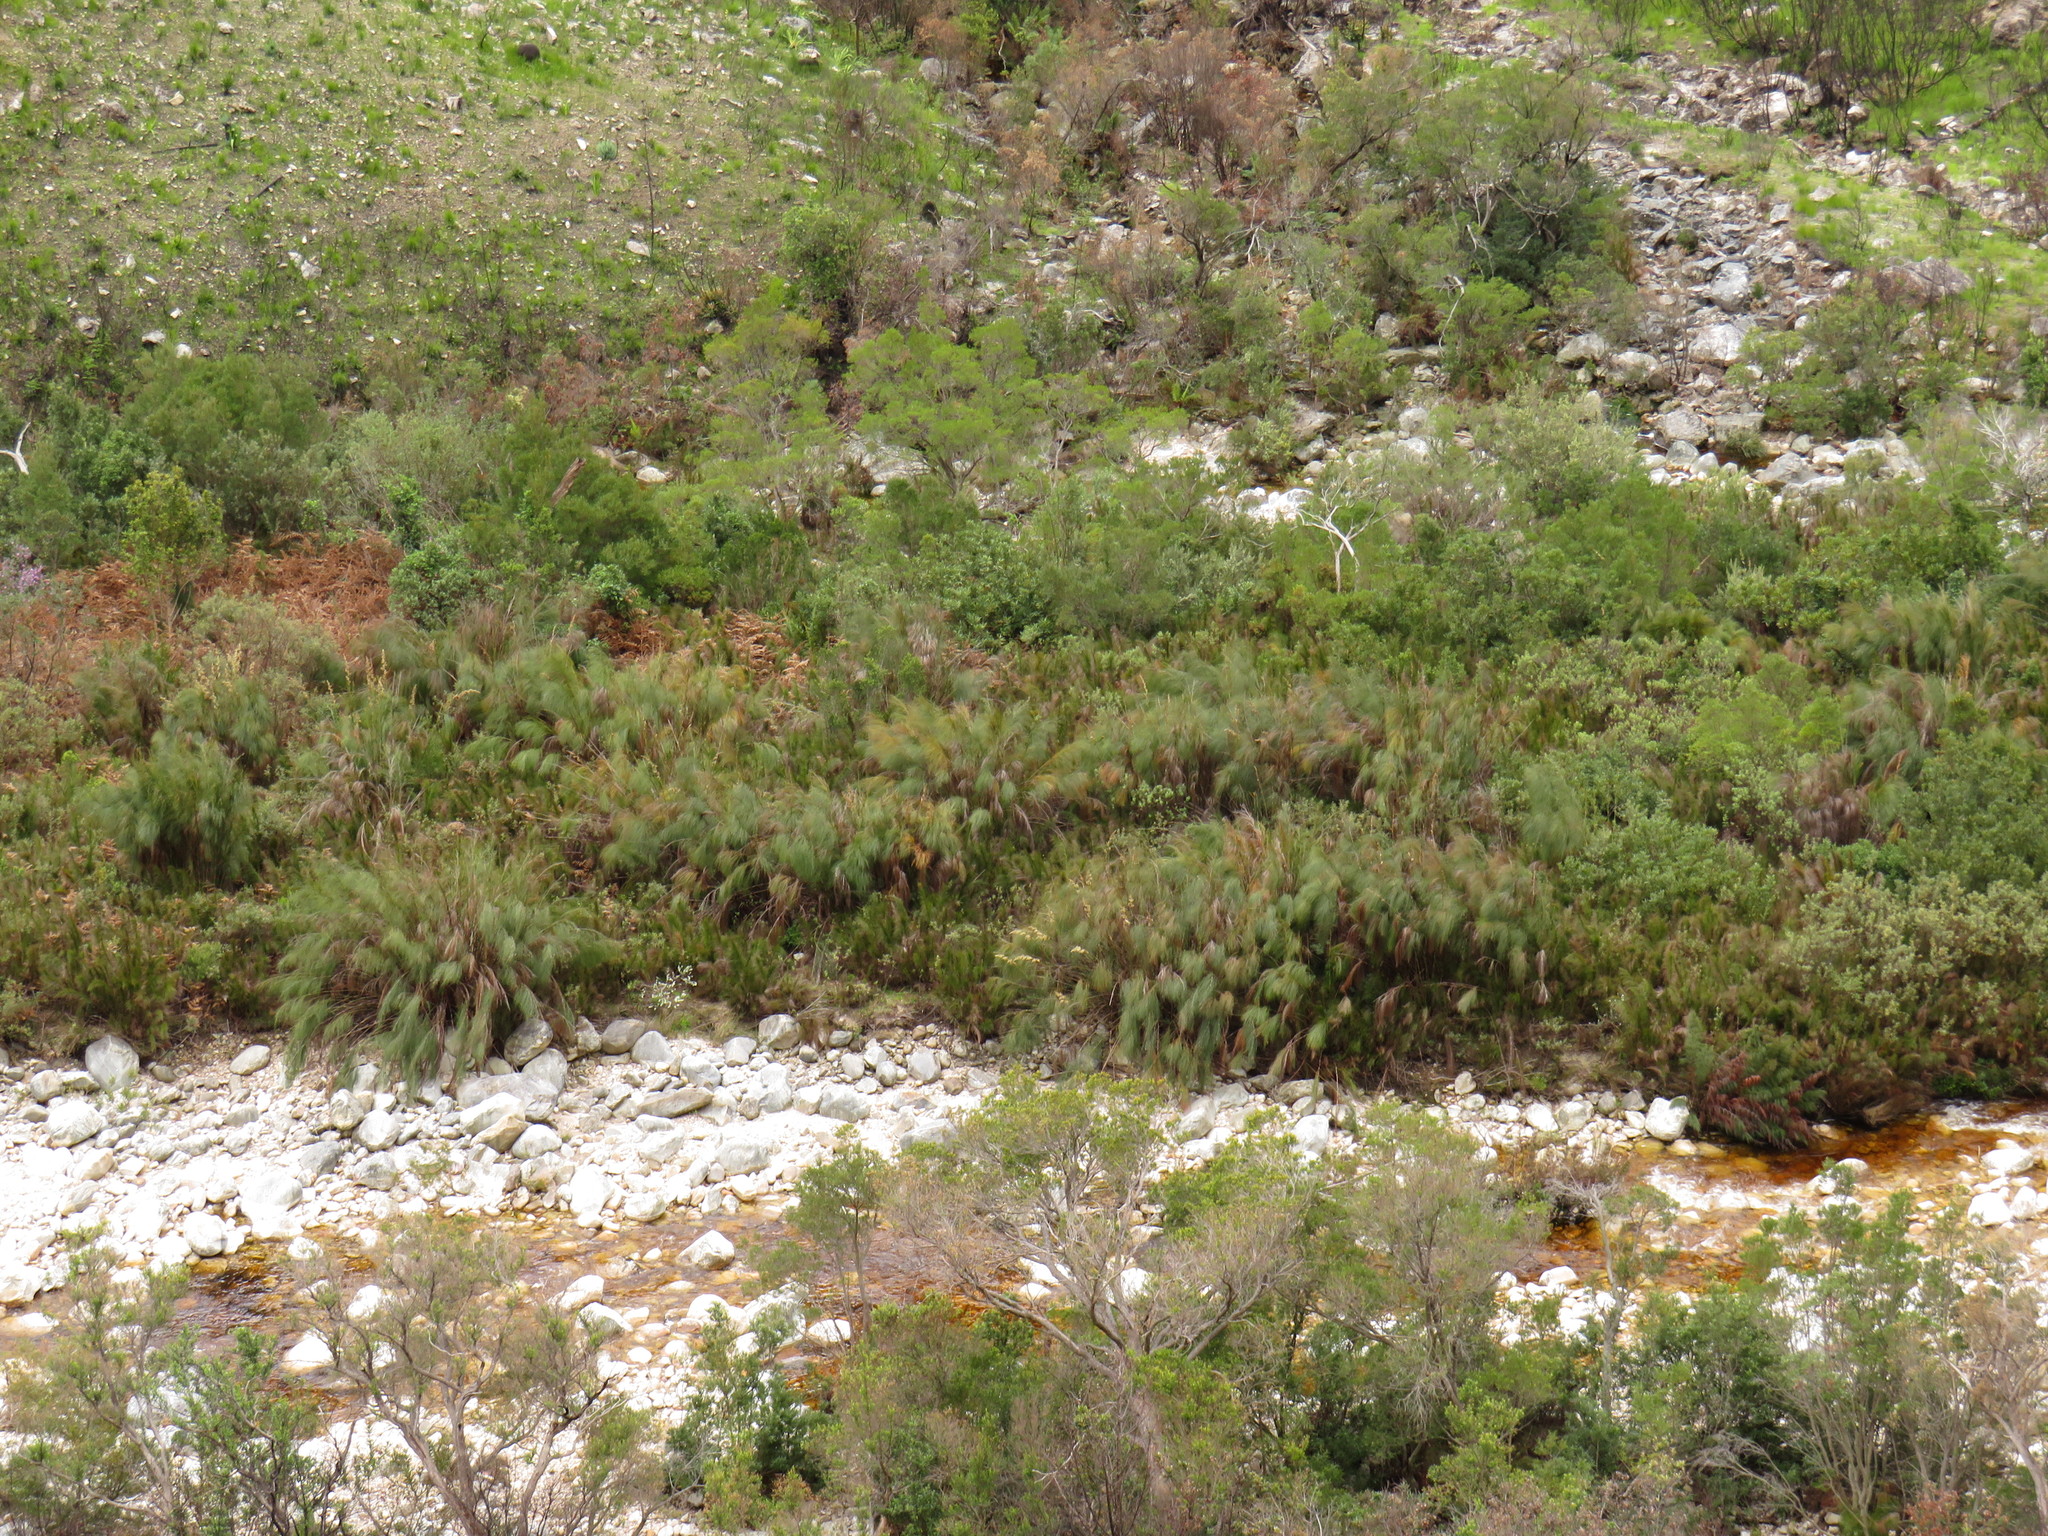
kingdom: Plantae
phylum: Tracheophyta
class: Liliopsida
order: Poales
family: Restionaceae
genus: Cannomois
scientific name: Cannomois grandis
